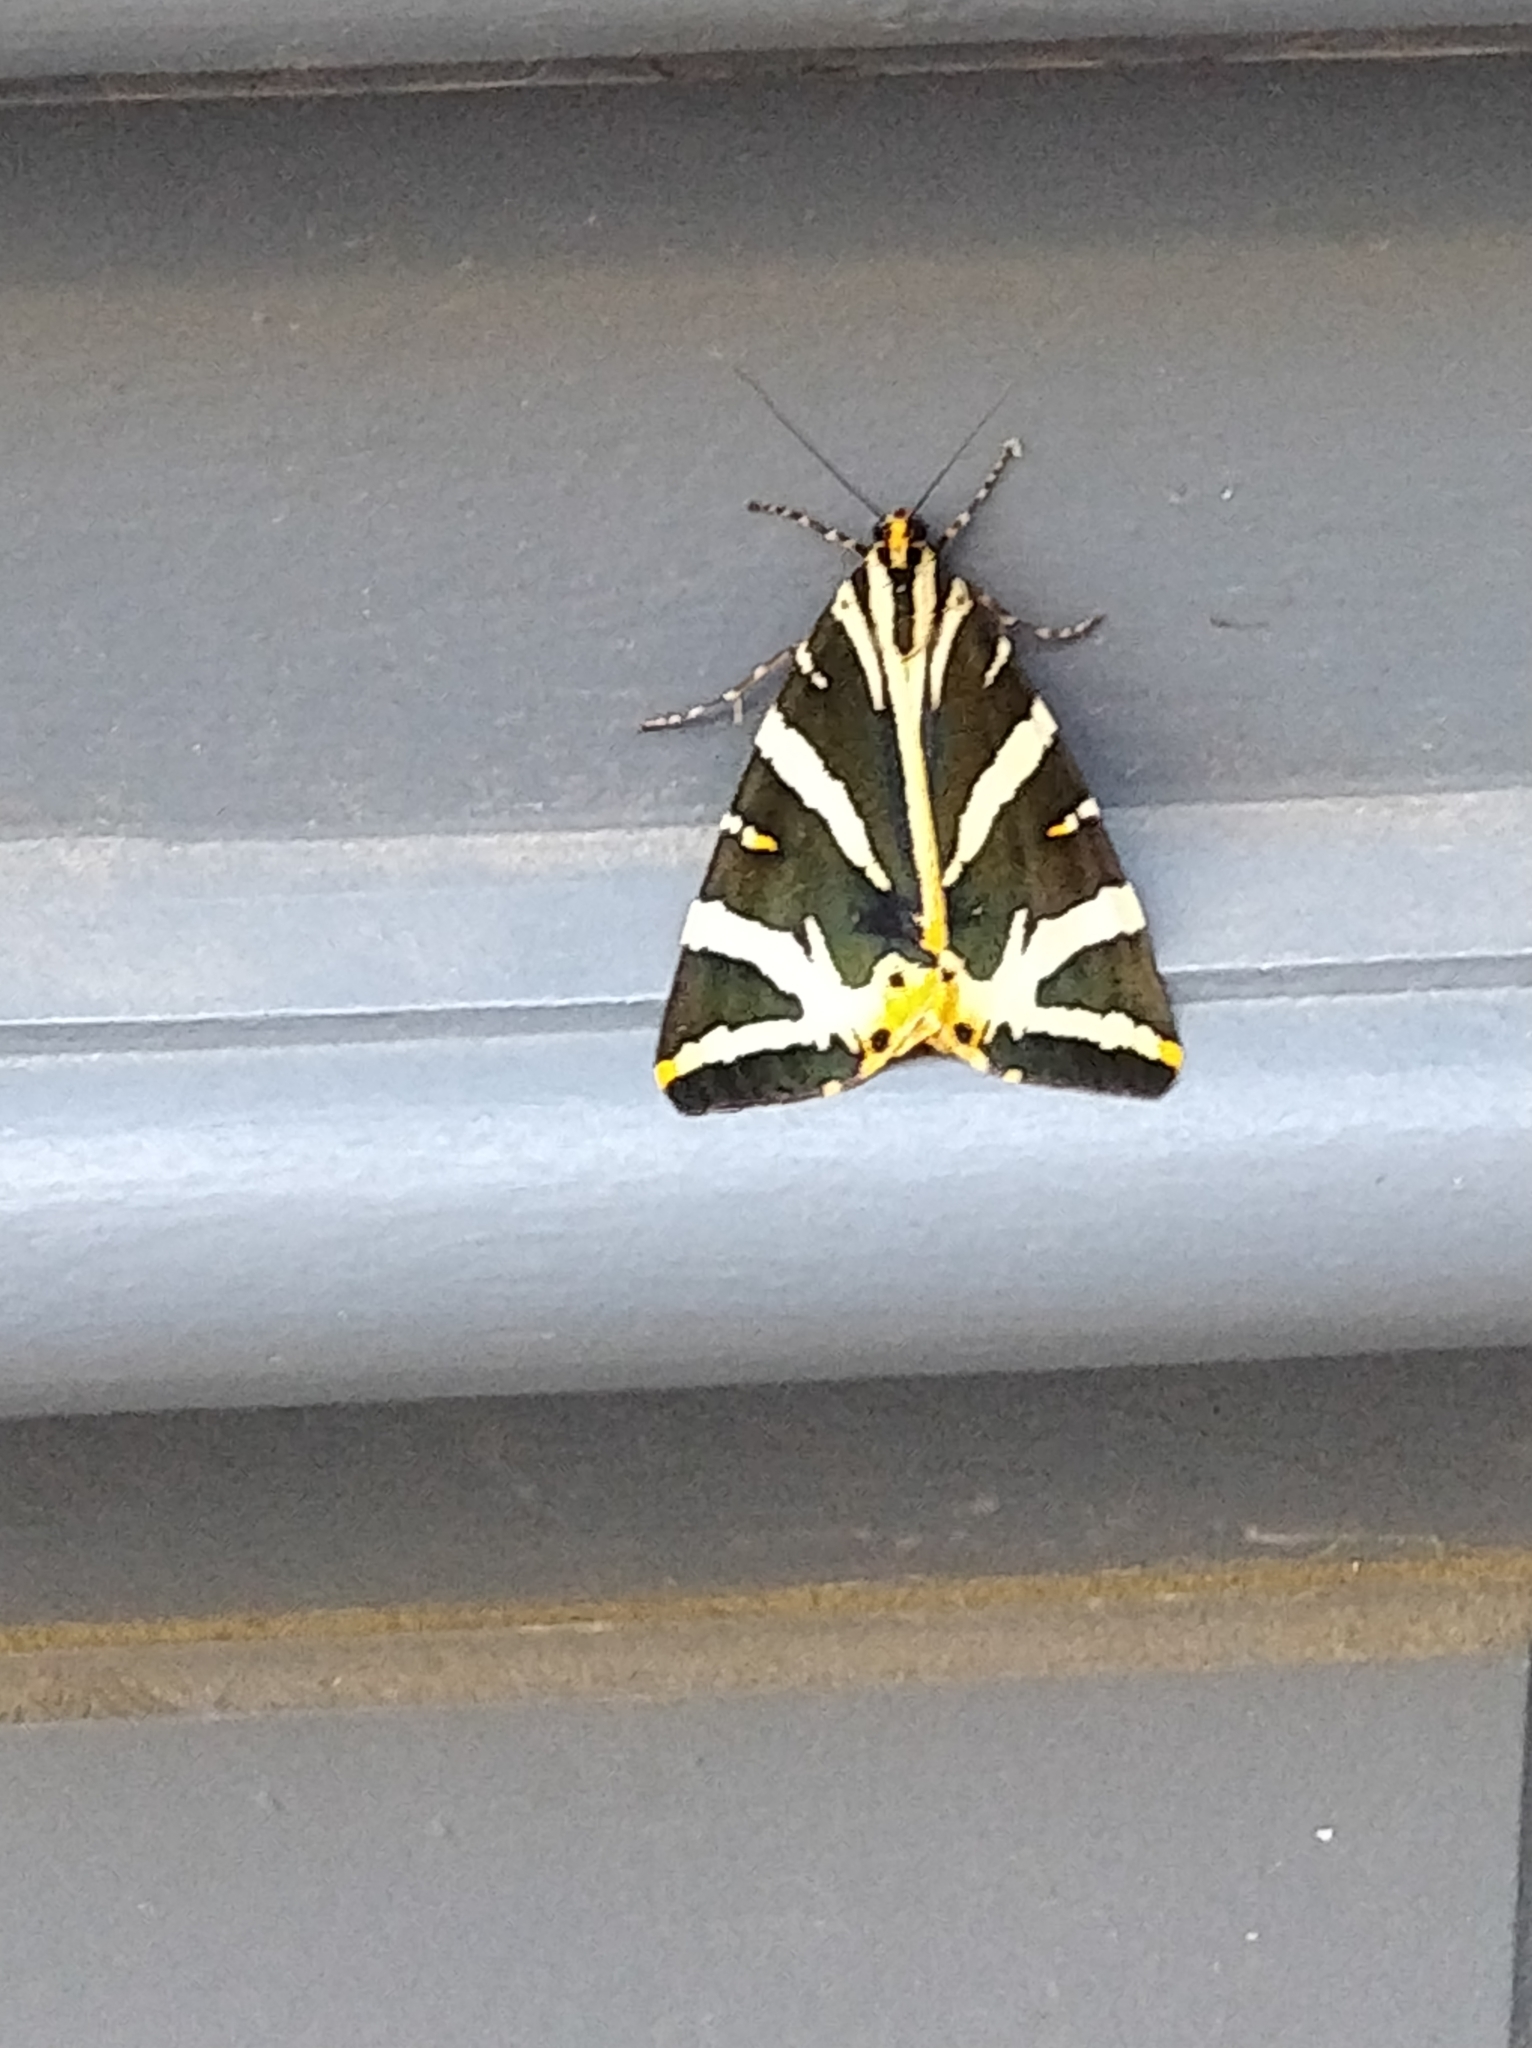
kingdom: Animalia
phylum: Arthropoda
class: Insecta
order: Lepidoptera
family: Erebidae
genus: Euplagia
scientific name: Euplagia quadripunctaria
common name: Jersey tiger
